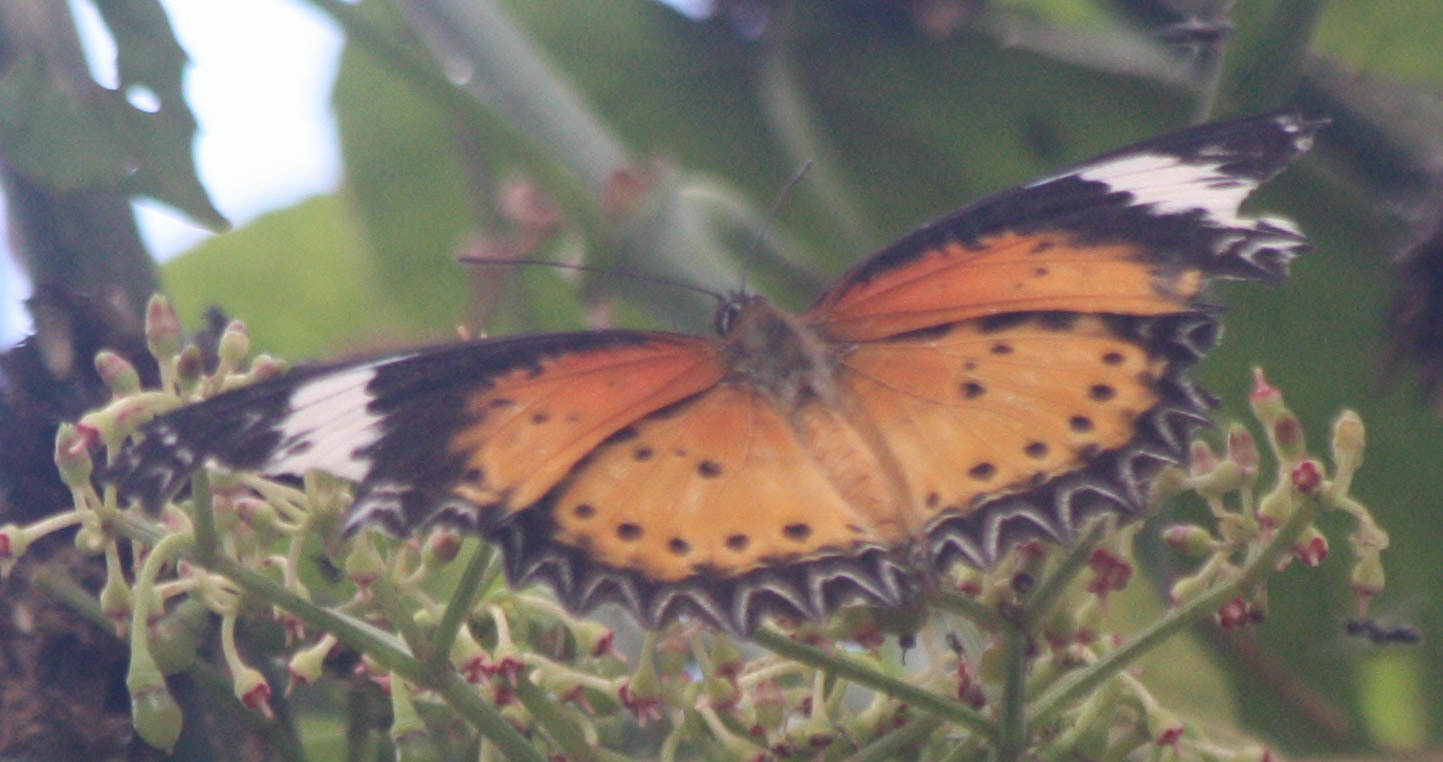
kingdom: Animalia
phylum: Arthropoda
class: Insecta
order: Lepidoptera
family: Nymphalidae
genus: Cethosia
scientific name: Cethosia cyane
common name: Leopard lacewing butterfly
